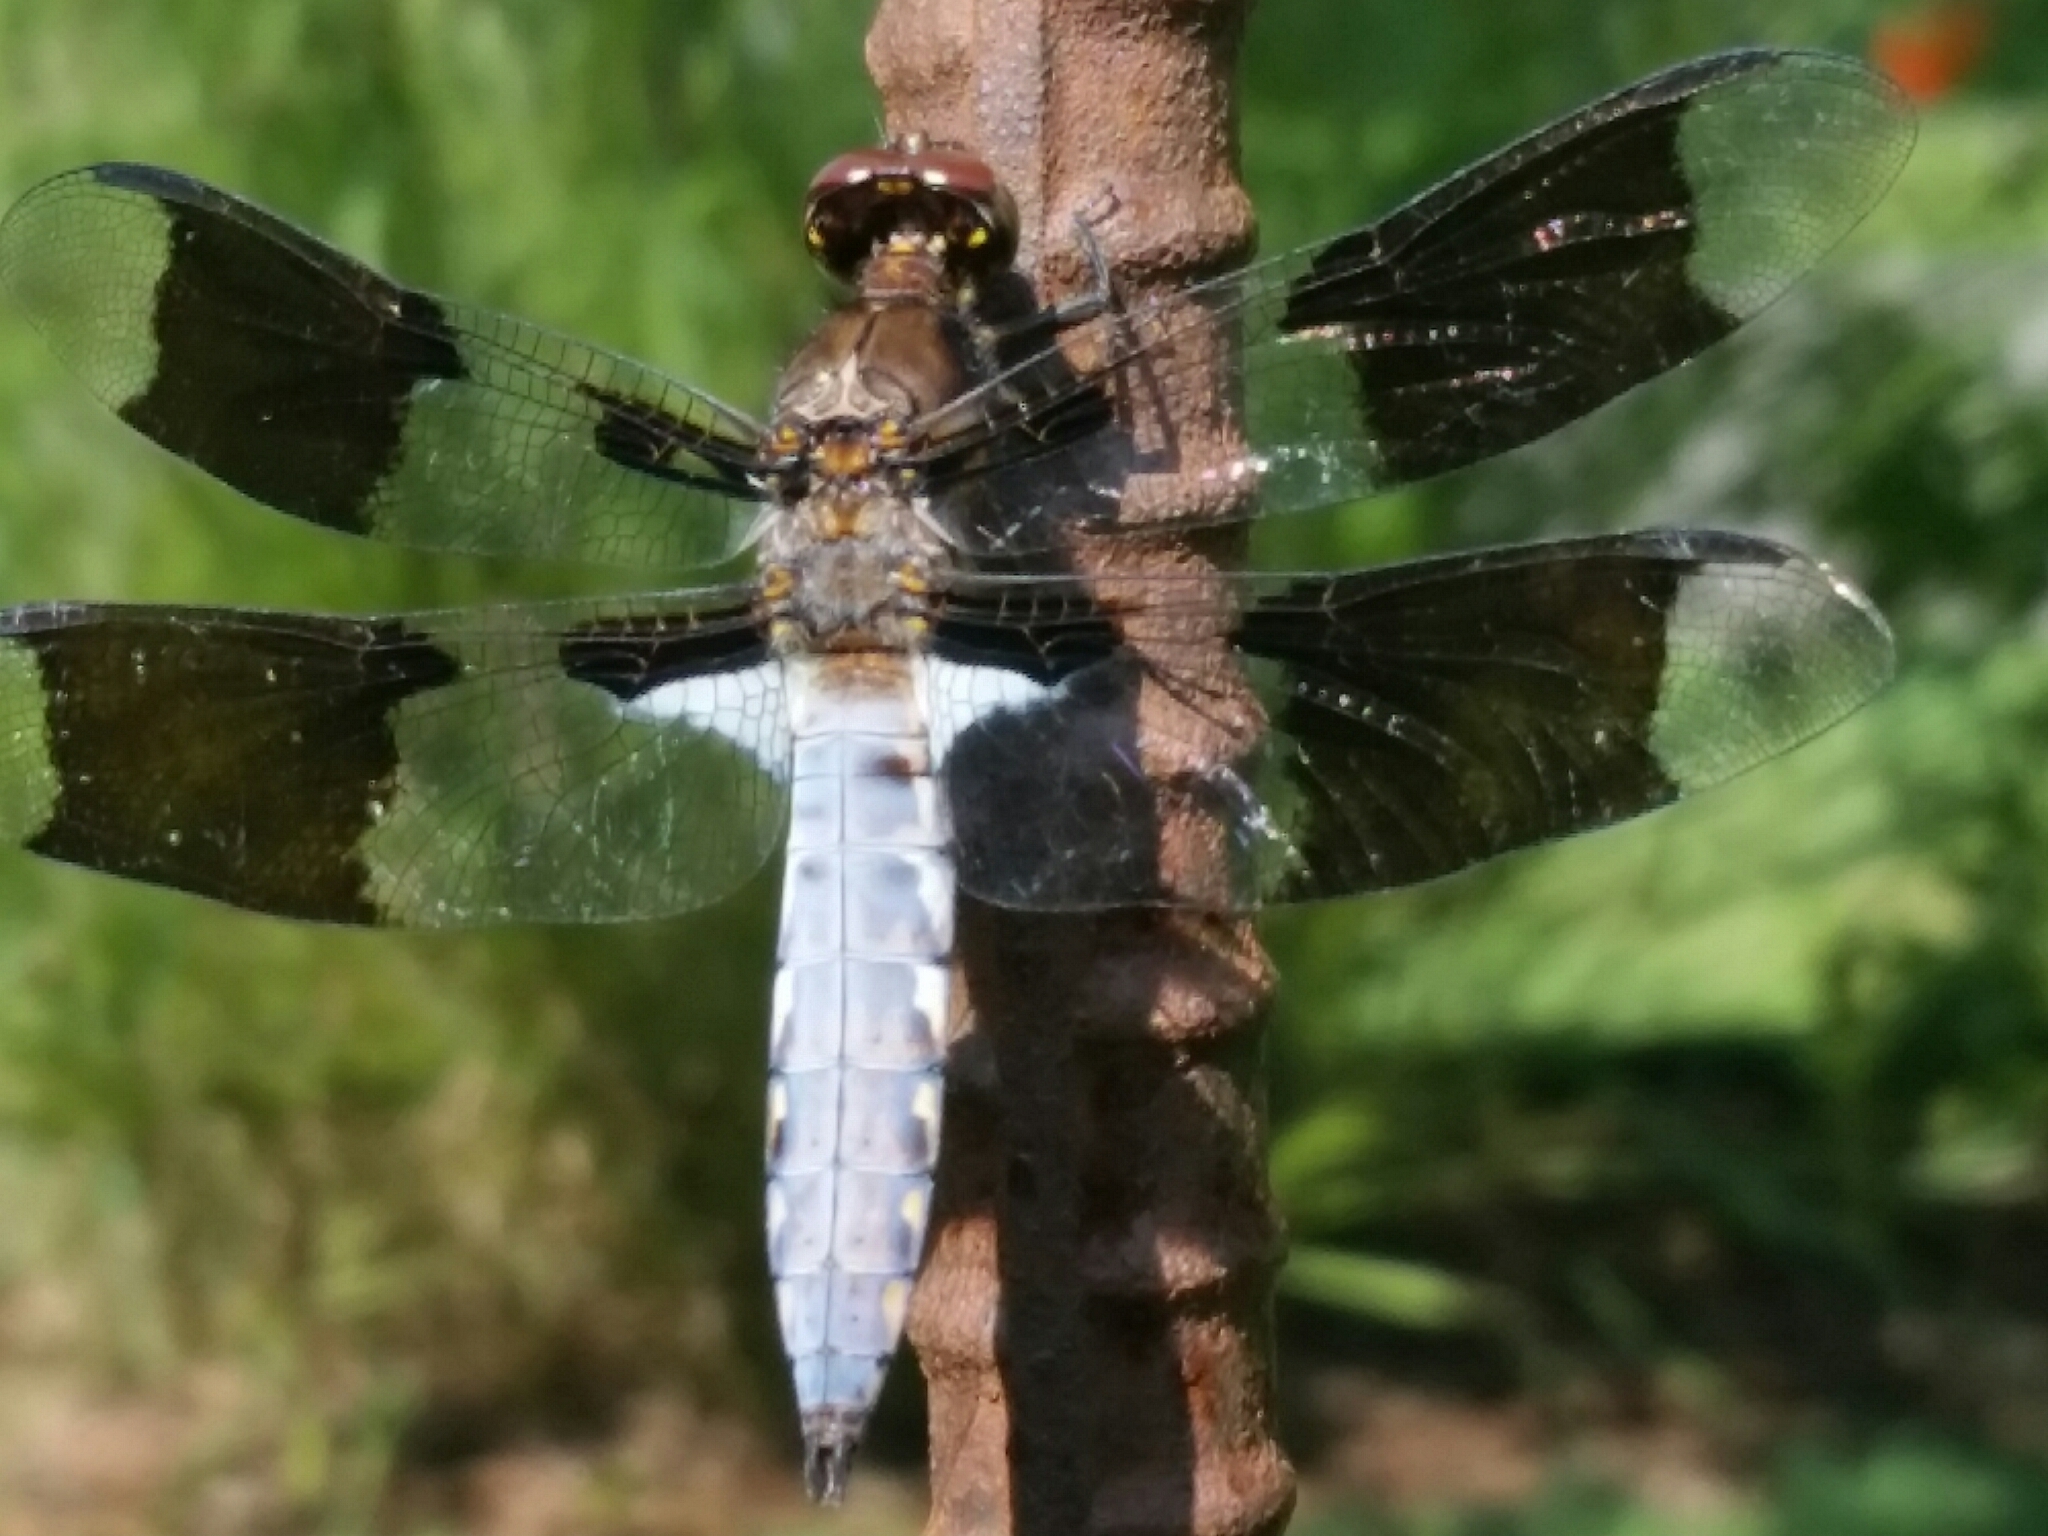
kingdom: Animalia
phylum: Arthropoda
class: Insecta
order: Odonata
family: Libellulidae
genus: Plathemis
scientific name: Plathemis lydia
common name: Common whitetail
